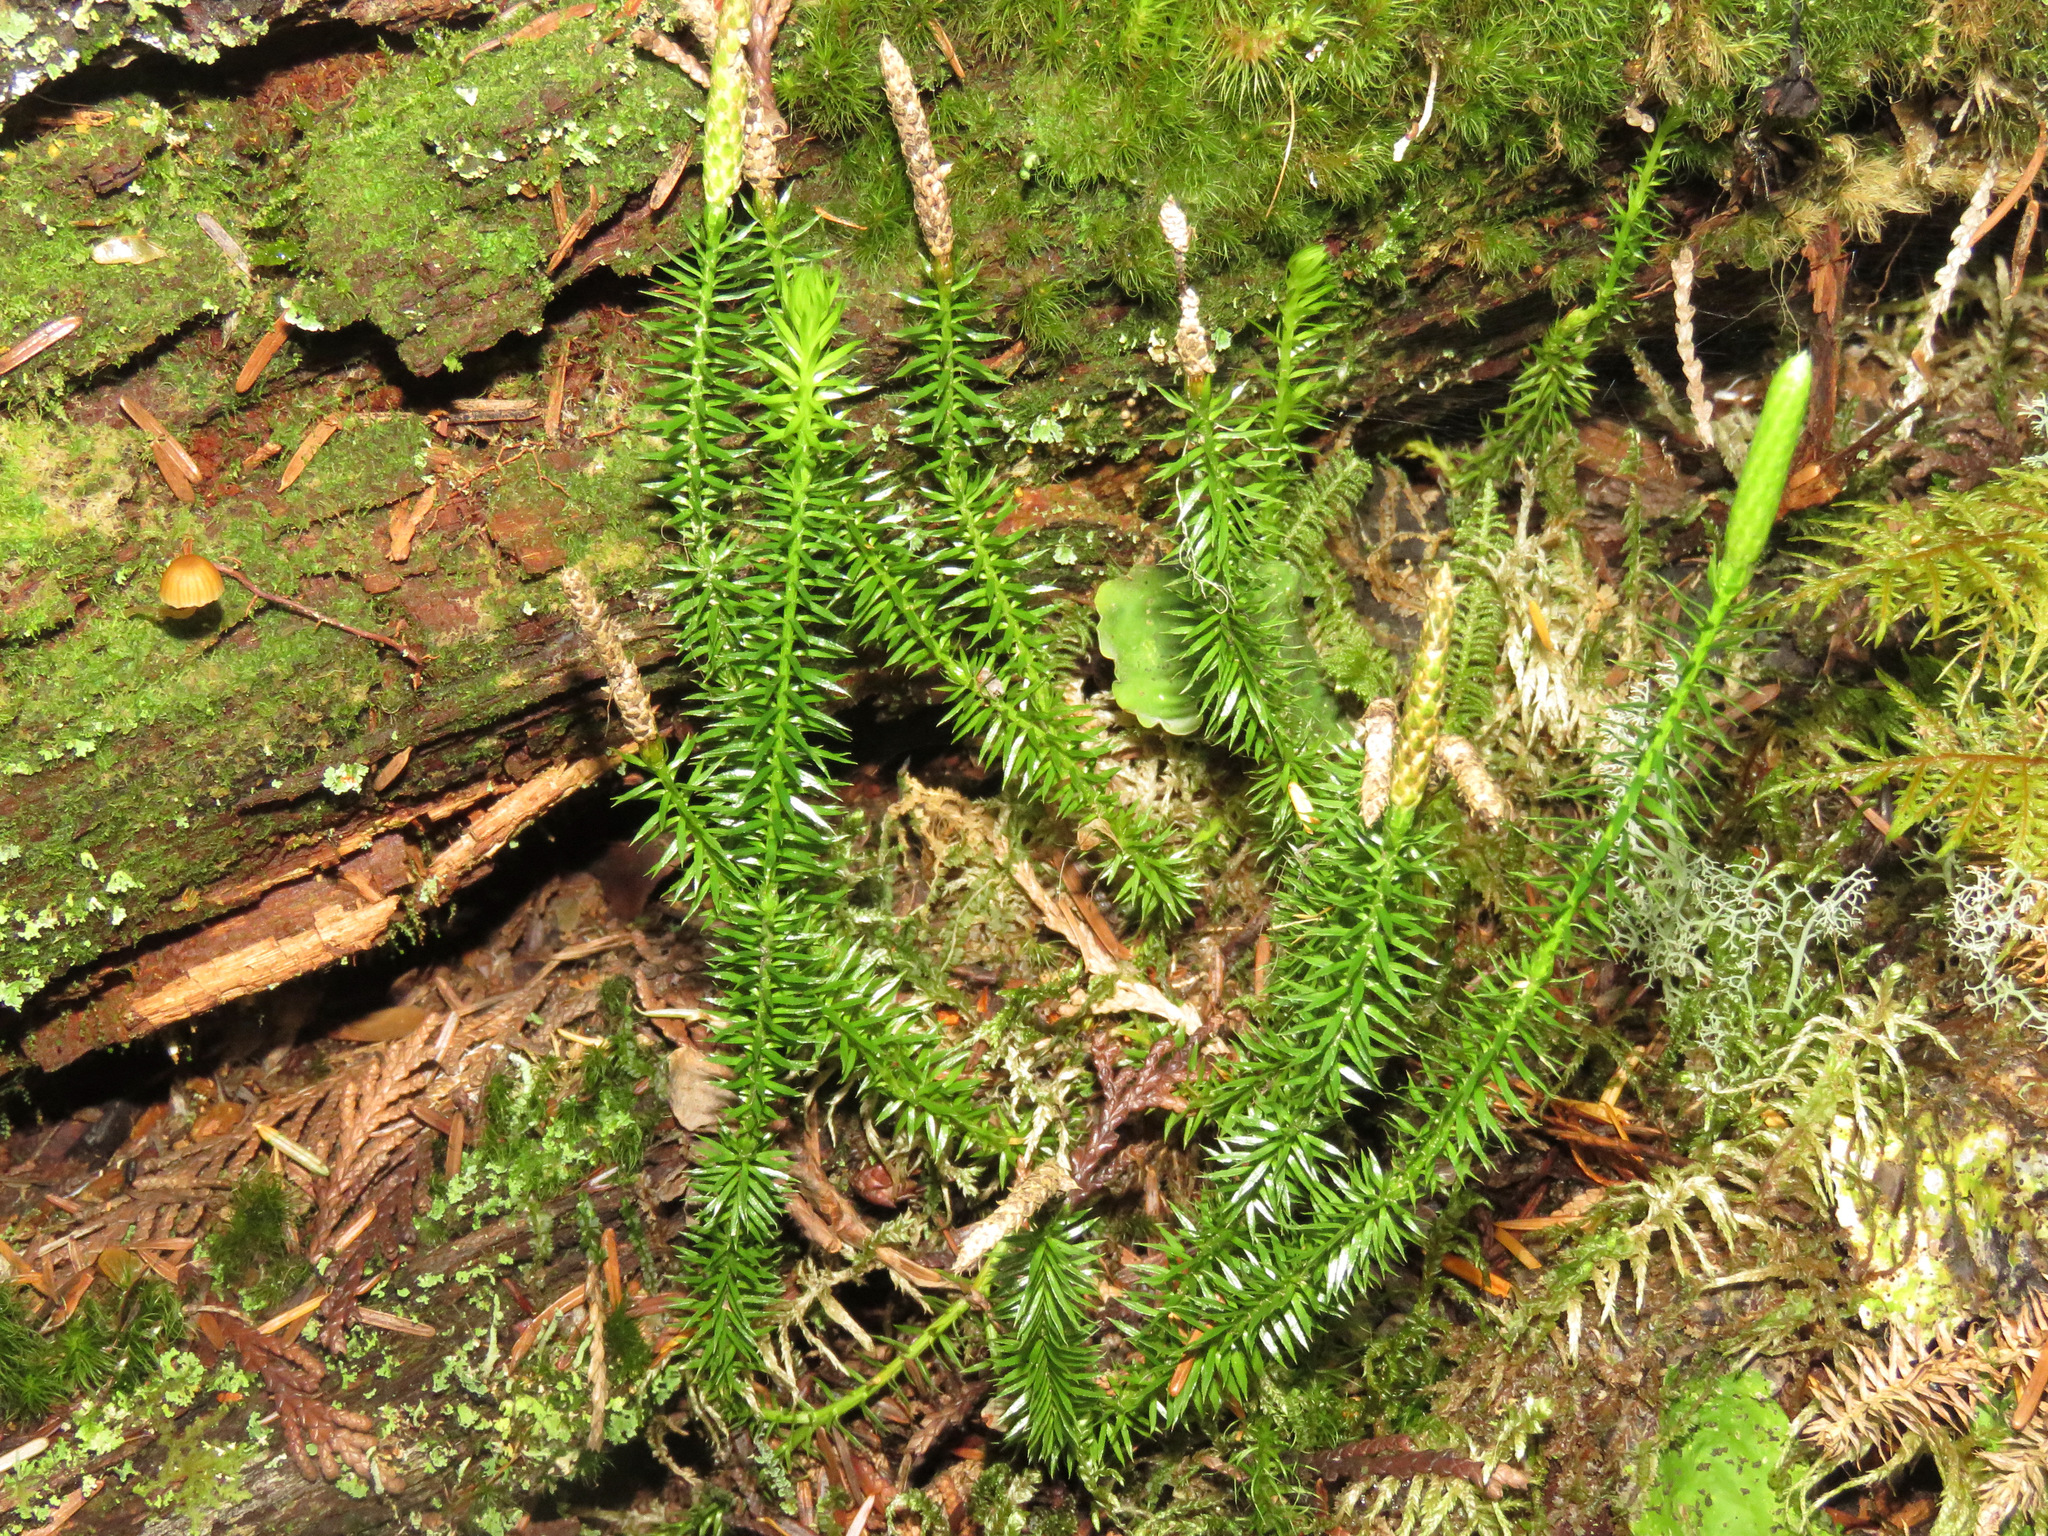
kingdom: Plantae
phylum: Tracheophyta
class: Lycopodiopsida
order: Lycopodiales
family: Lycopodiaceae
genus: Spinulum
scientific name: Spinulum annotinum
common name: Interrupted club-moss
